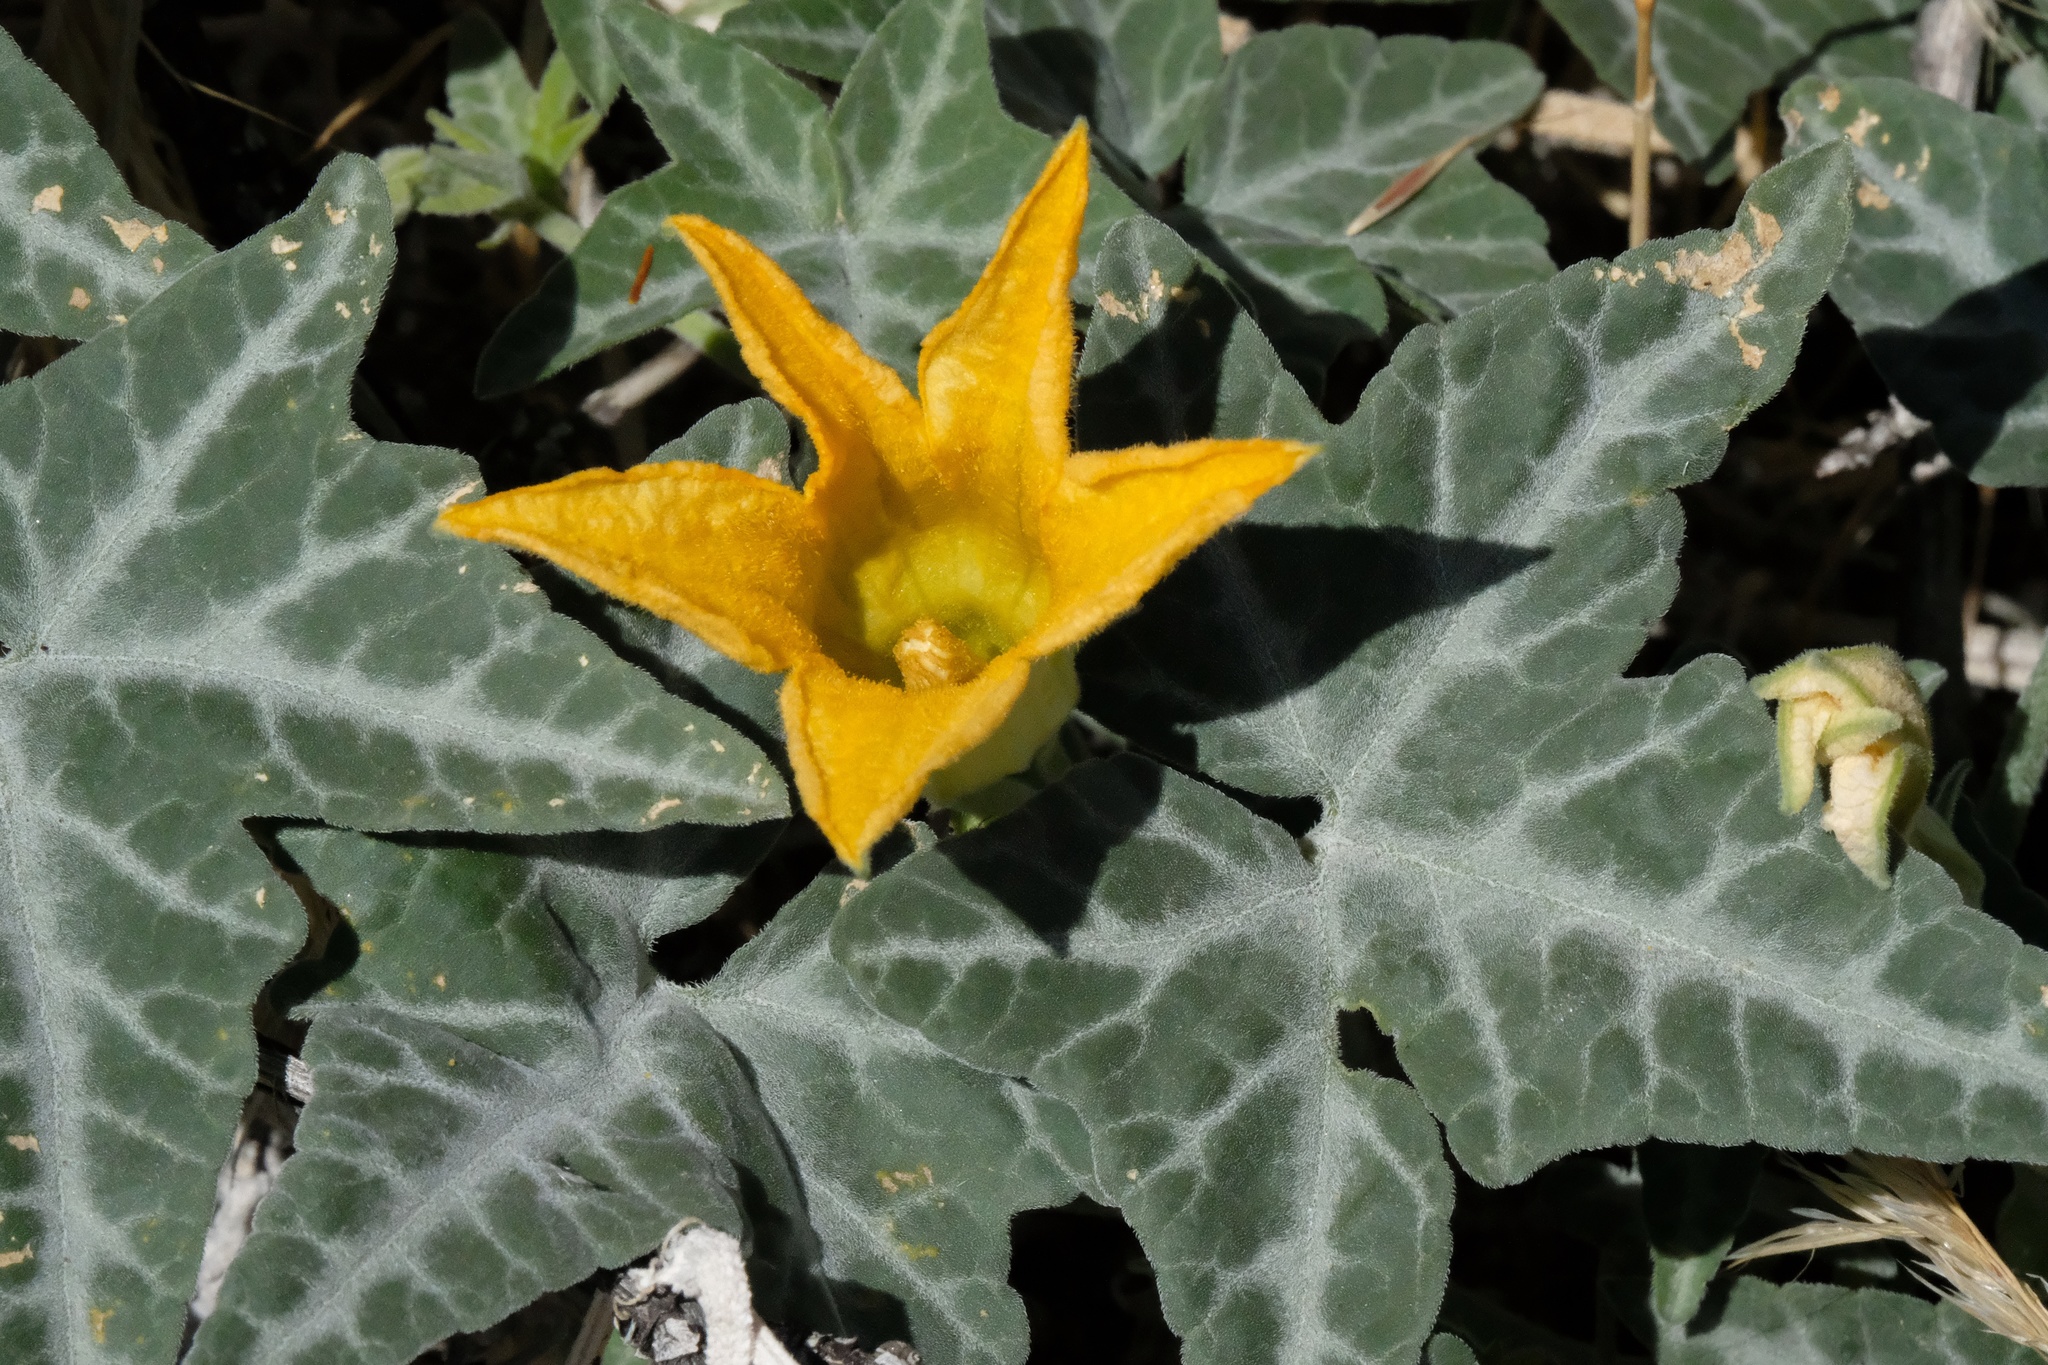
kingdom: Plantae
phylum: Tracheophyta
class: Magnoliopsida
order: Cucurbitales
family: Cucurbitaceae
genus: Cucurbita
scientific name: Cucurbita palmata
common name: Coyote-melon
